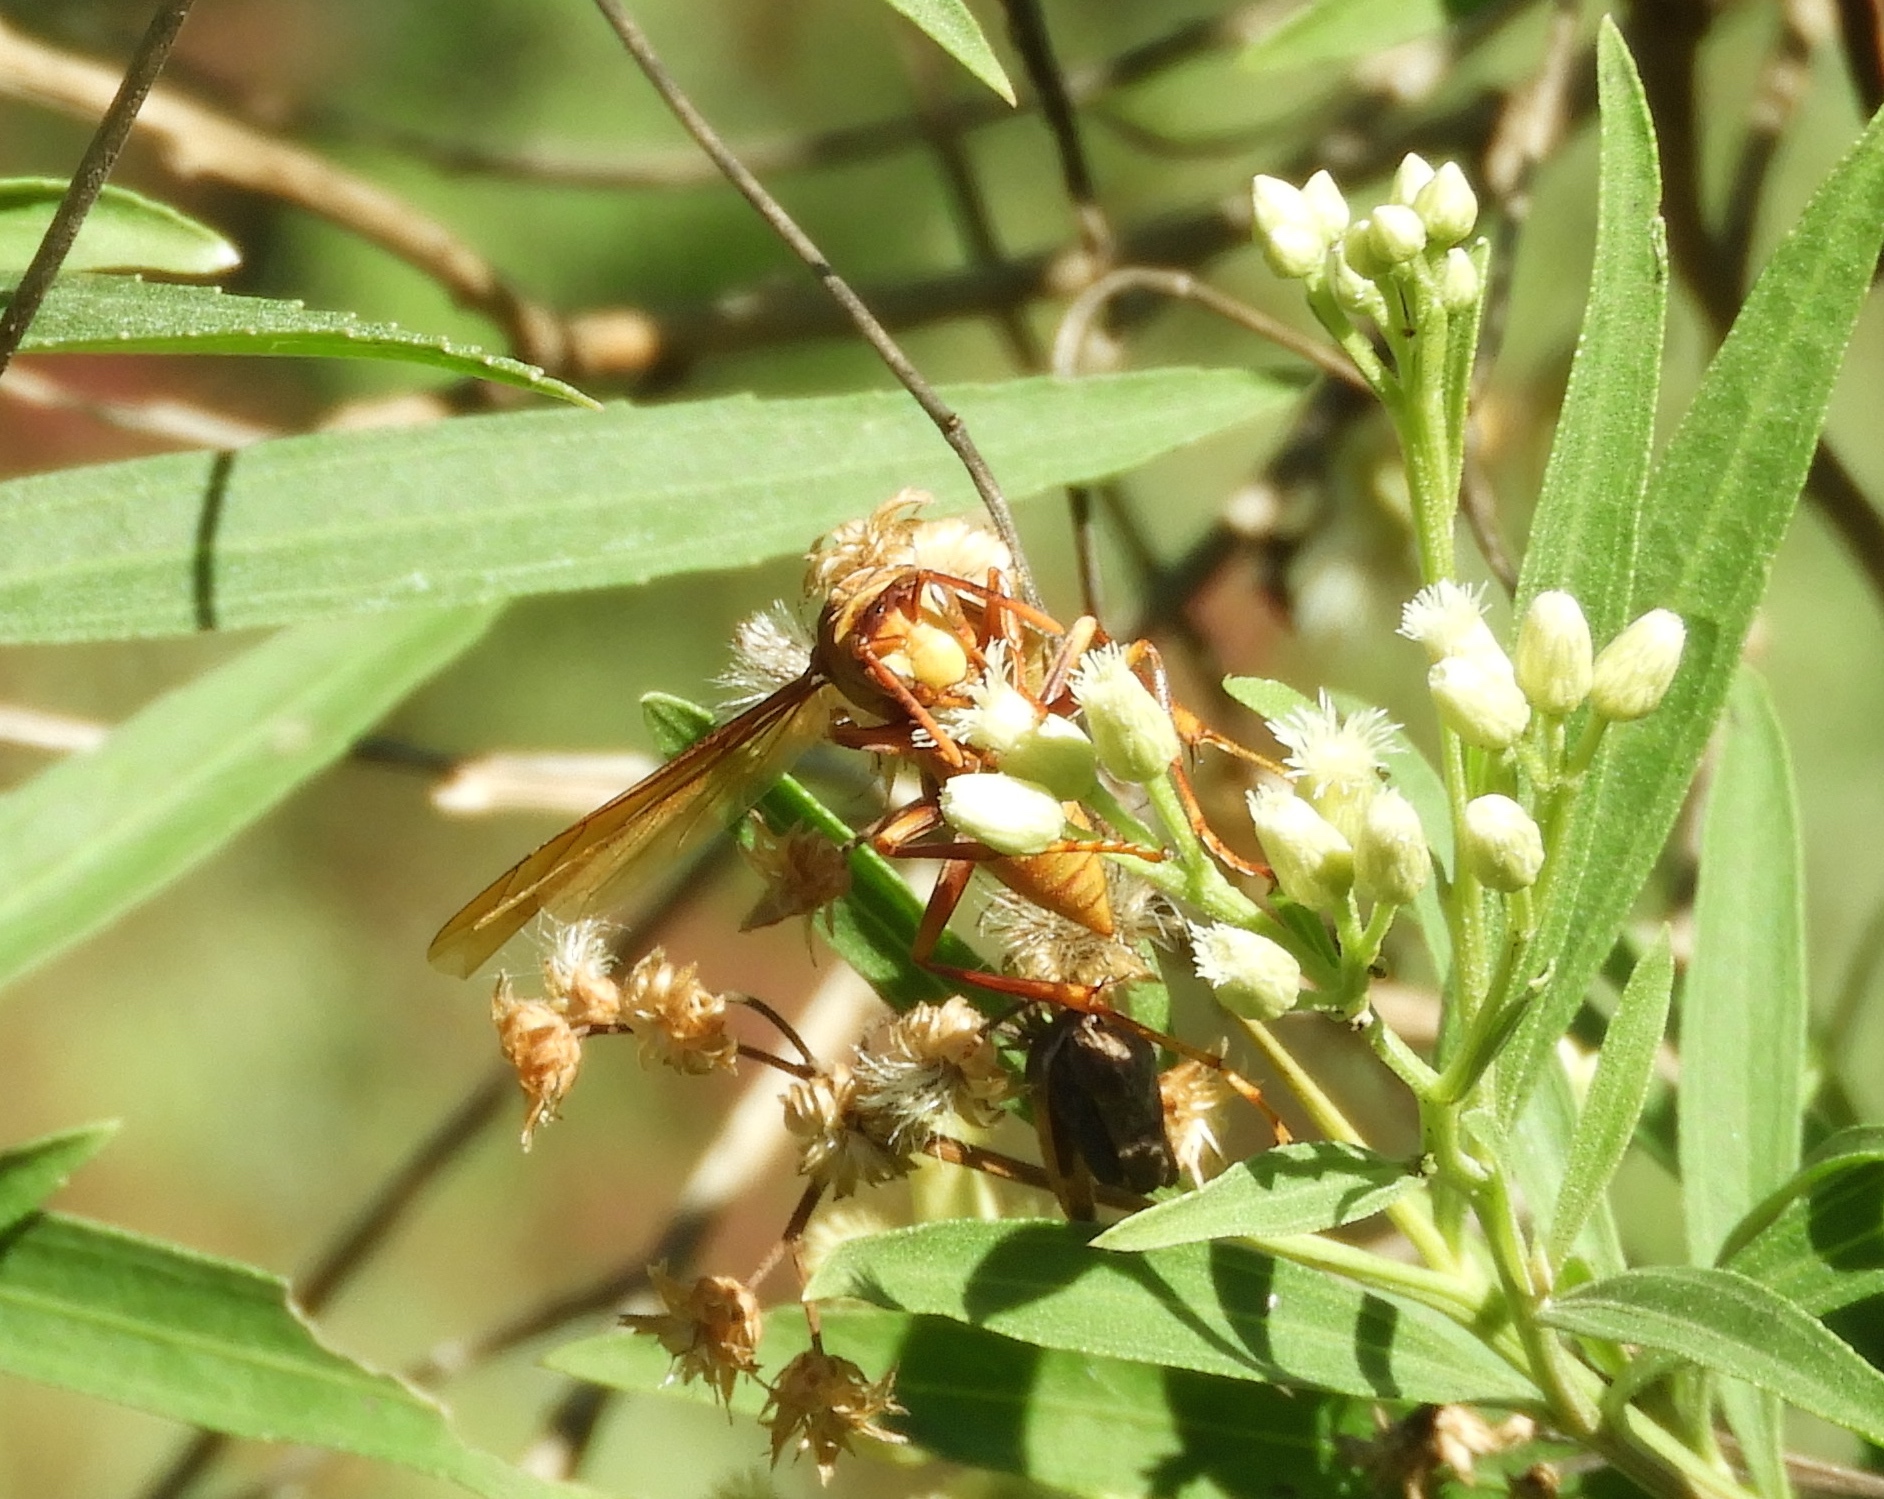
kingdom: Animalia
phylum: Arthropoda
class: Insecta
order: Hymenoptera
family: Eumenidae
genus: Polistes
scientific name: Polistes carnifex
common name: Paper wasp
